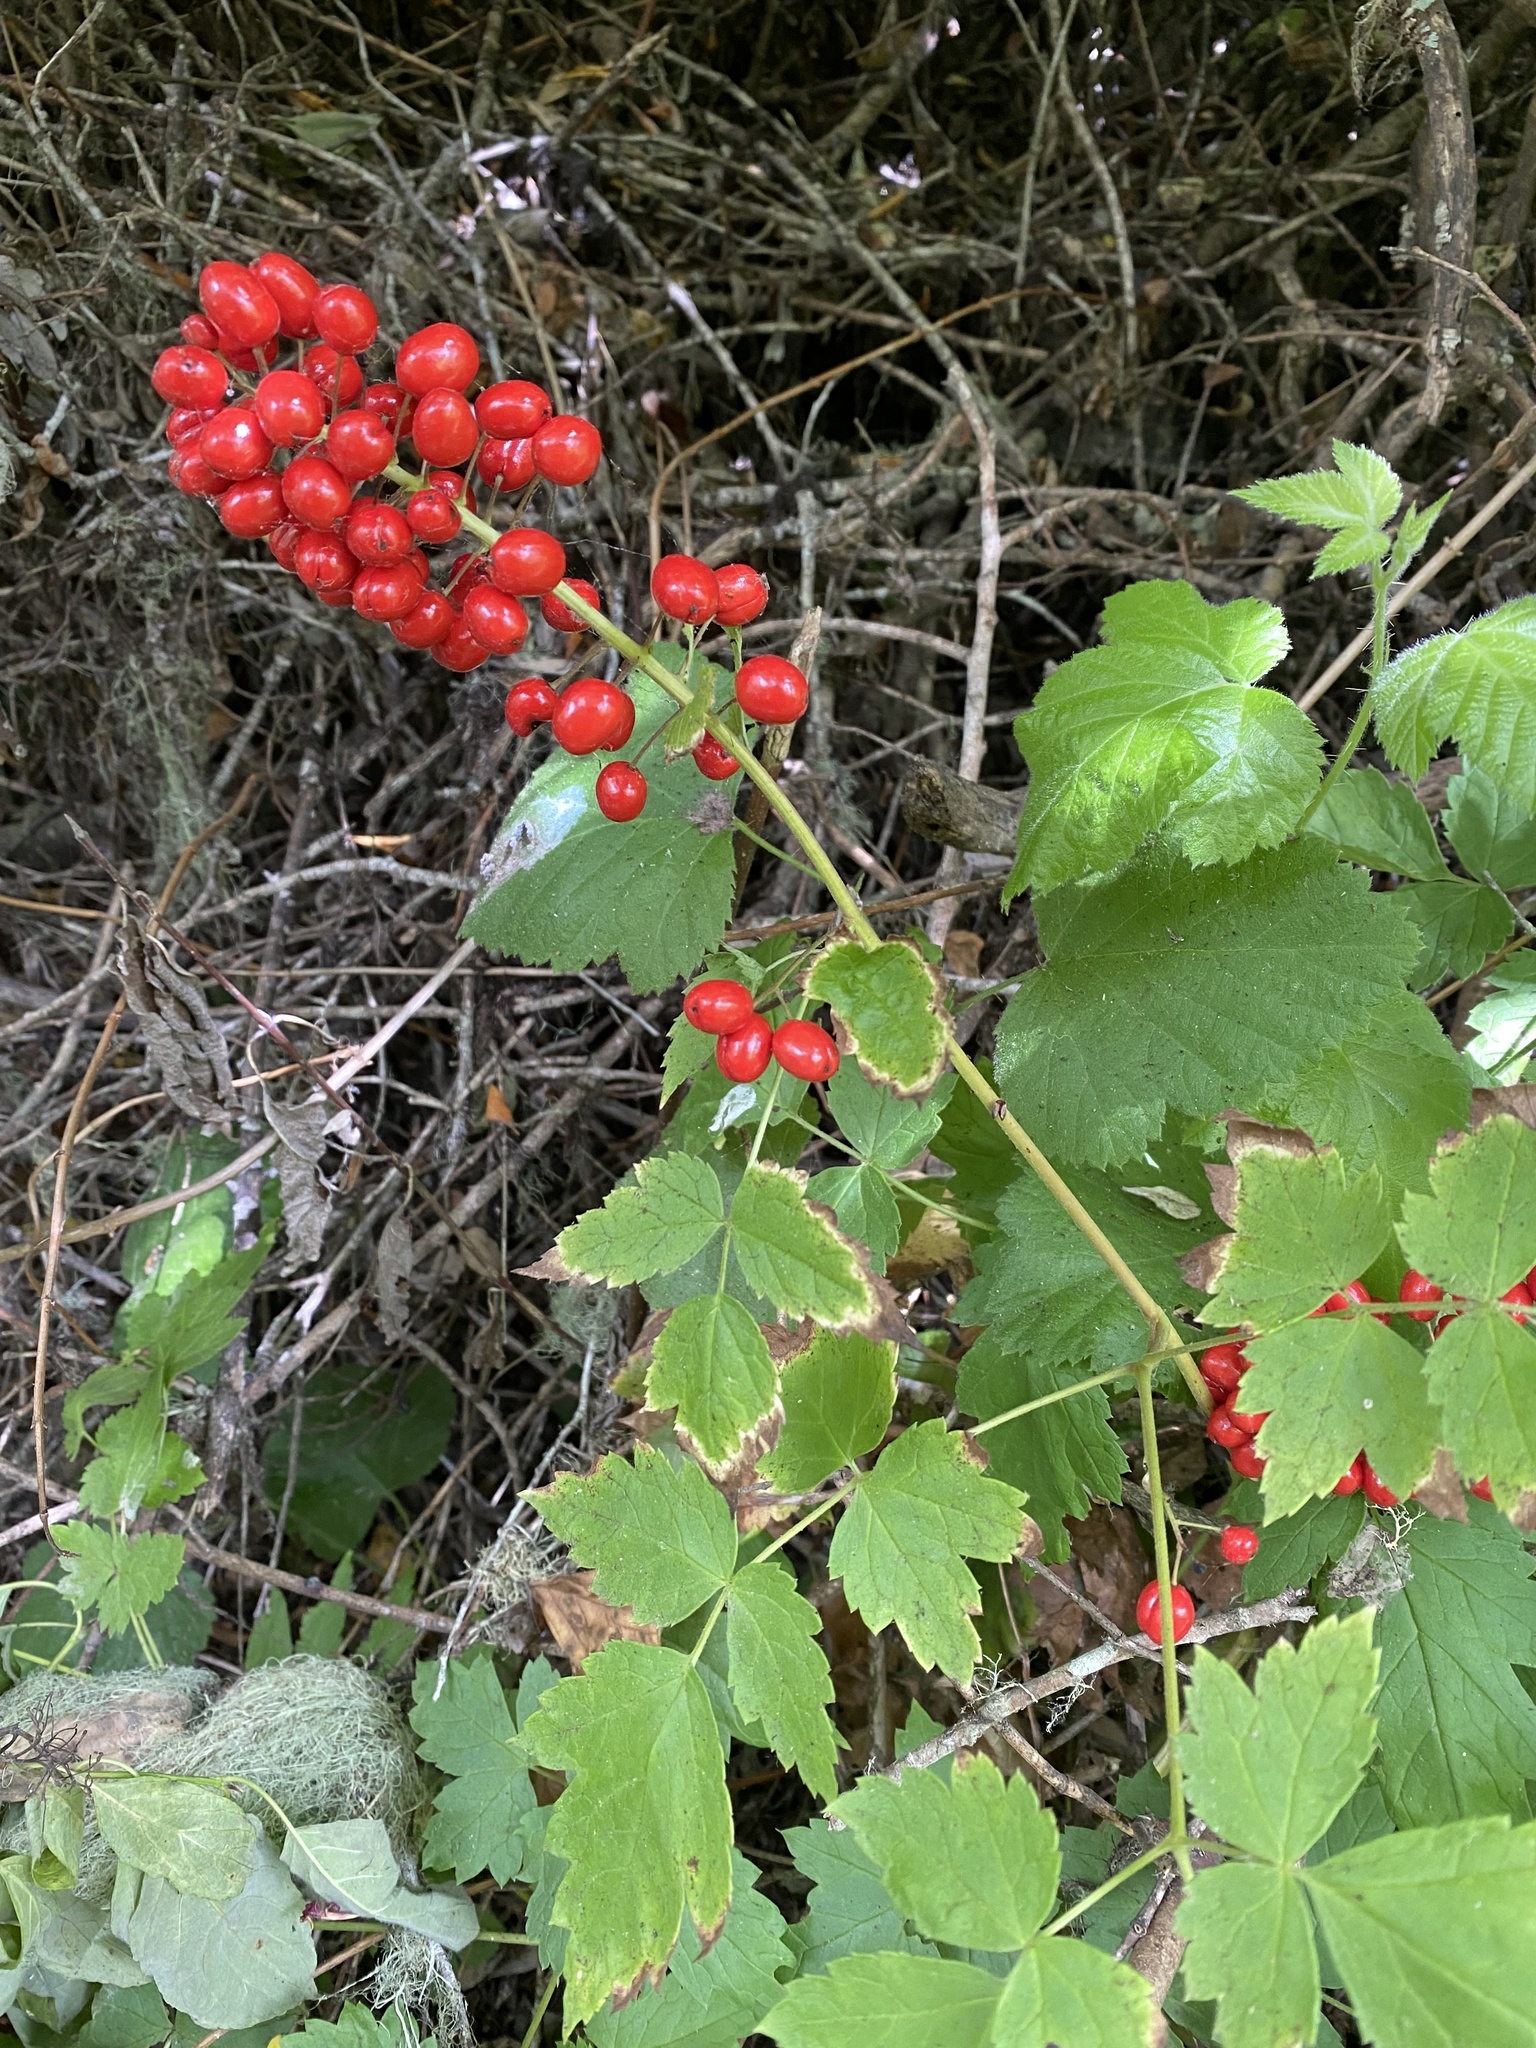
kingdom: Plantae
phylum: Tracheophyta
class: Magnoliopsida
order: Ranunculales
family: Ranunculaceae
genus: Actaea
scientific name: Actaea rubra
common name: Red baneberry
